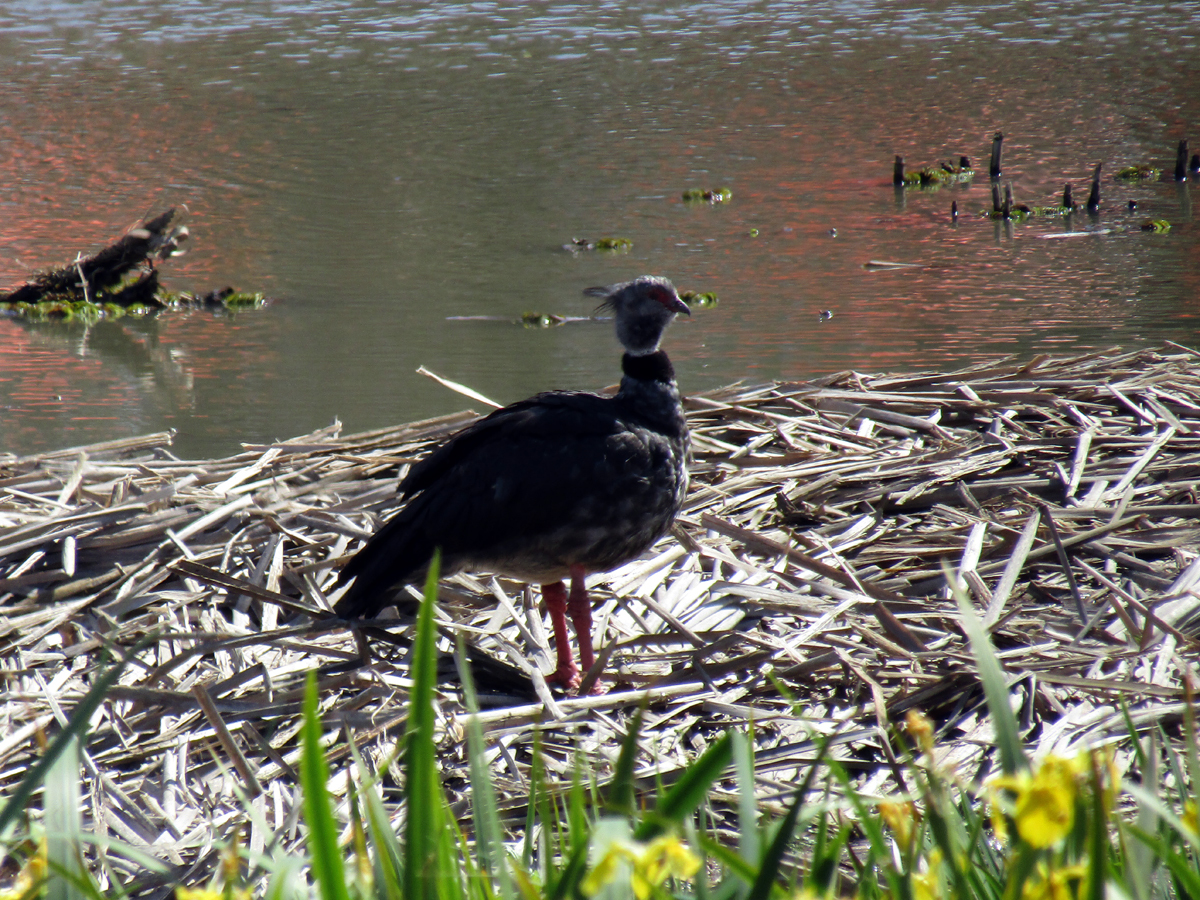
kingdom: Animalia
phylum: Chordata
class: Aves
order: Anseriformes
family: Anhimidae
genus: Chauna
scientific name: Chauna torquata
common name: Southern screamer
